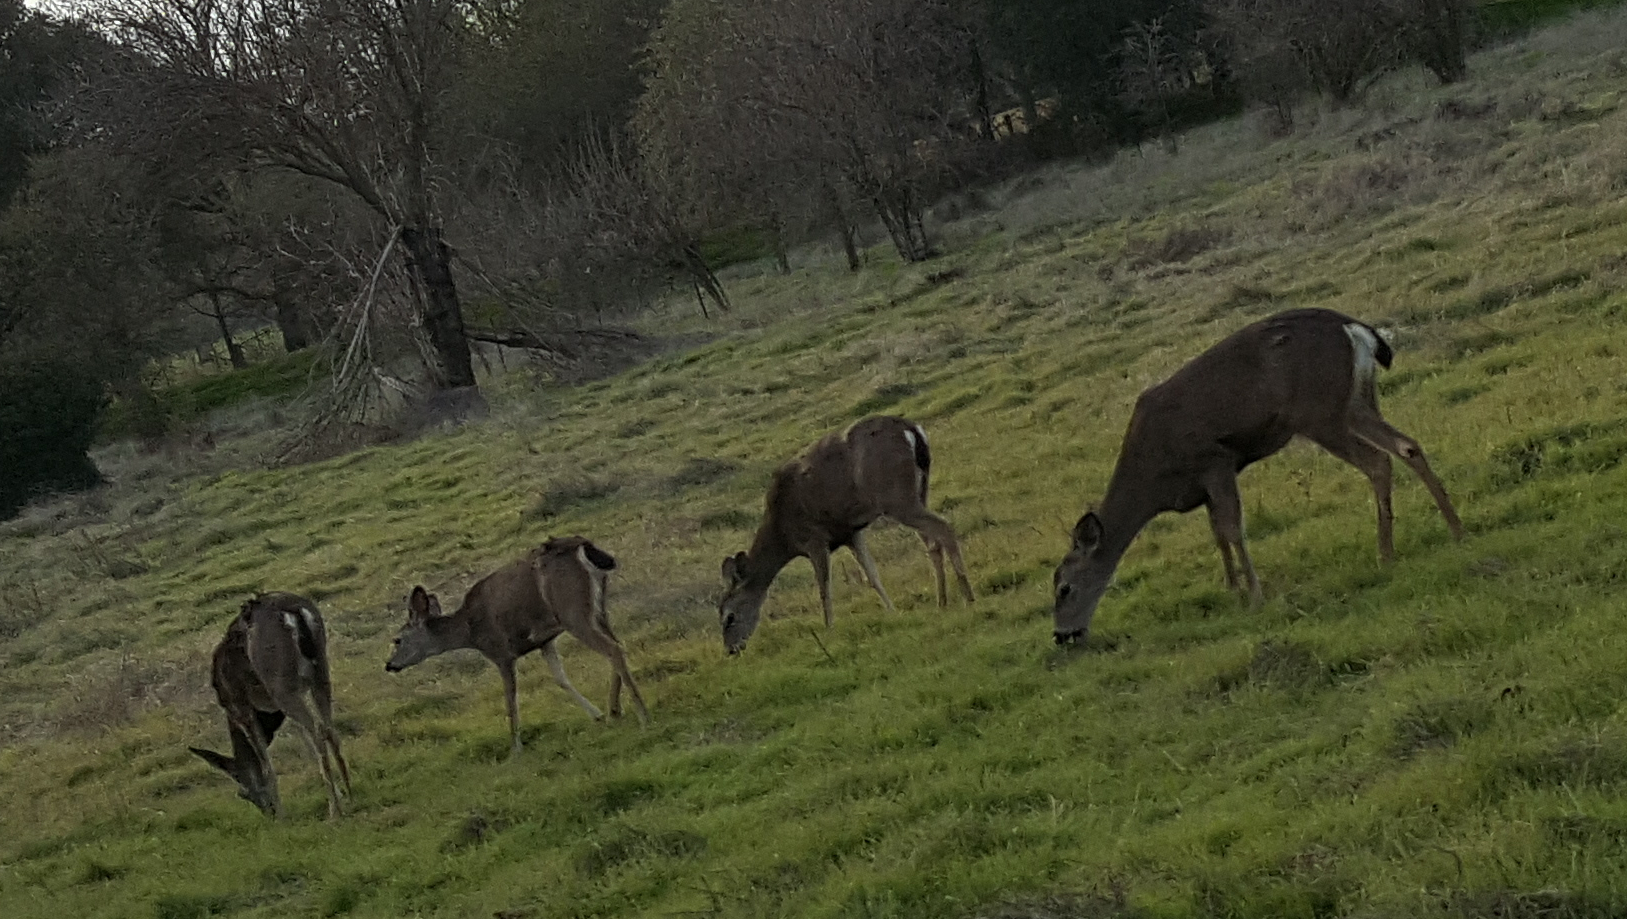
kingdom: Animalia
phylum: Chordata
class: Mammalia
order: Artiodactyla
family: Cervidae
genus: Odocoileus
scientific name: Odocoileus hemionus
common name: Mule deer
